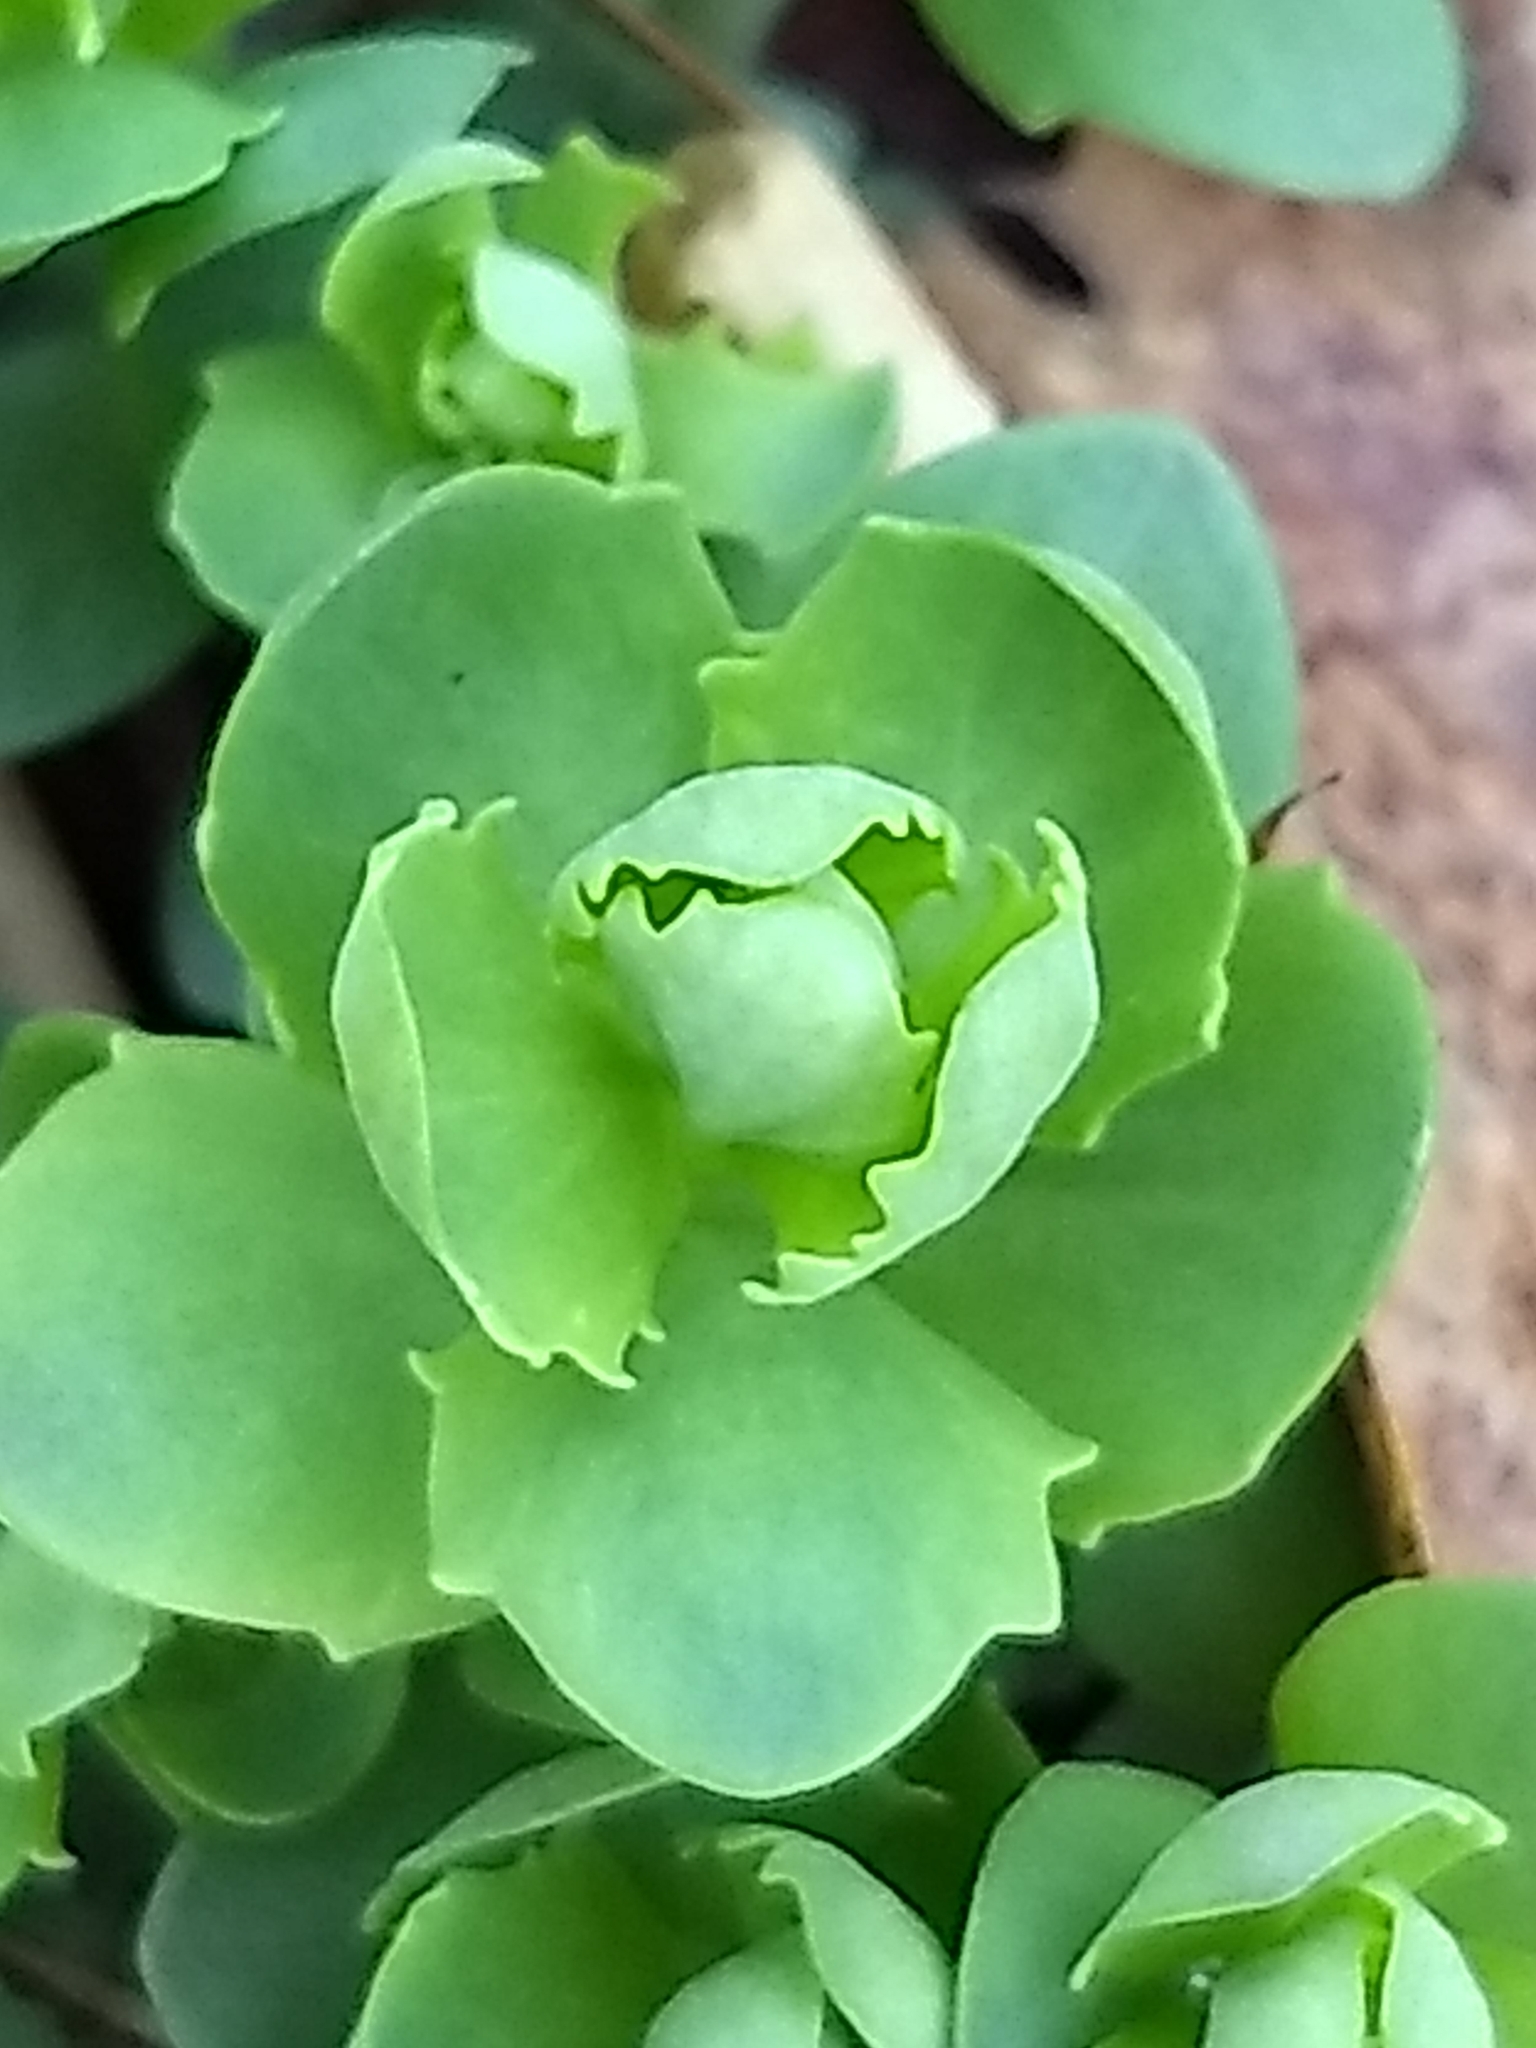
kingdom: Plantae
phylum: Tracheophyta
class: Magnoliopsida
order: Saxifragales
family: Crassulaceae
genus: Hylotelephium
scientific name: Hylotelephium telephium
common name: Live-forever
